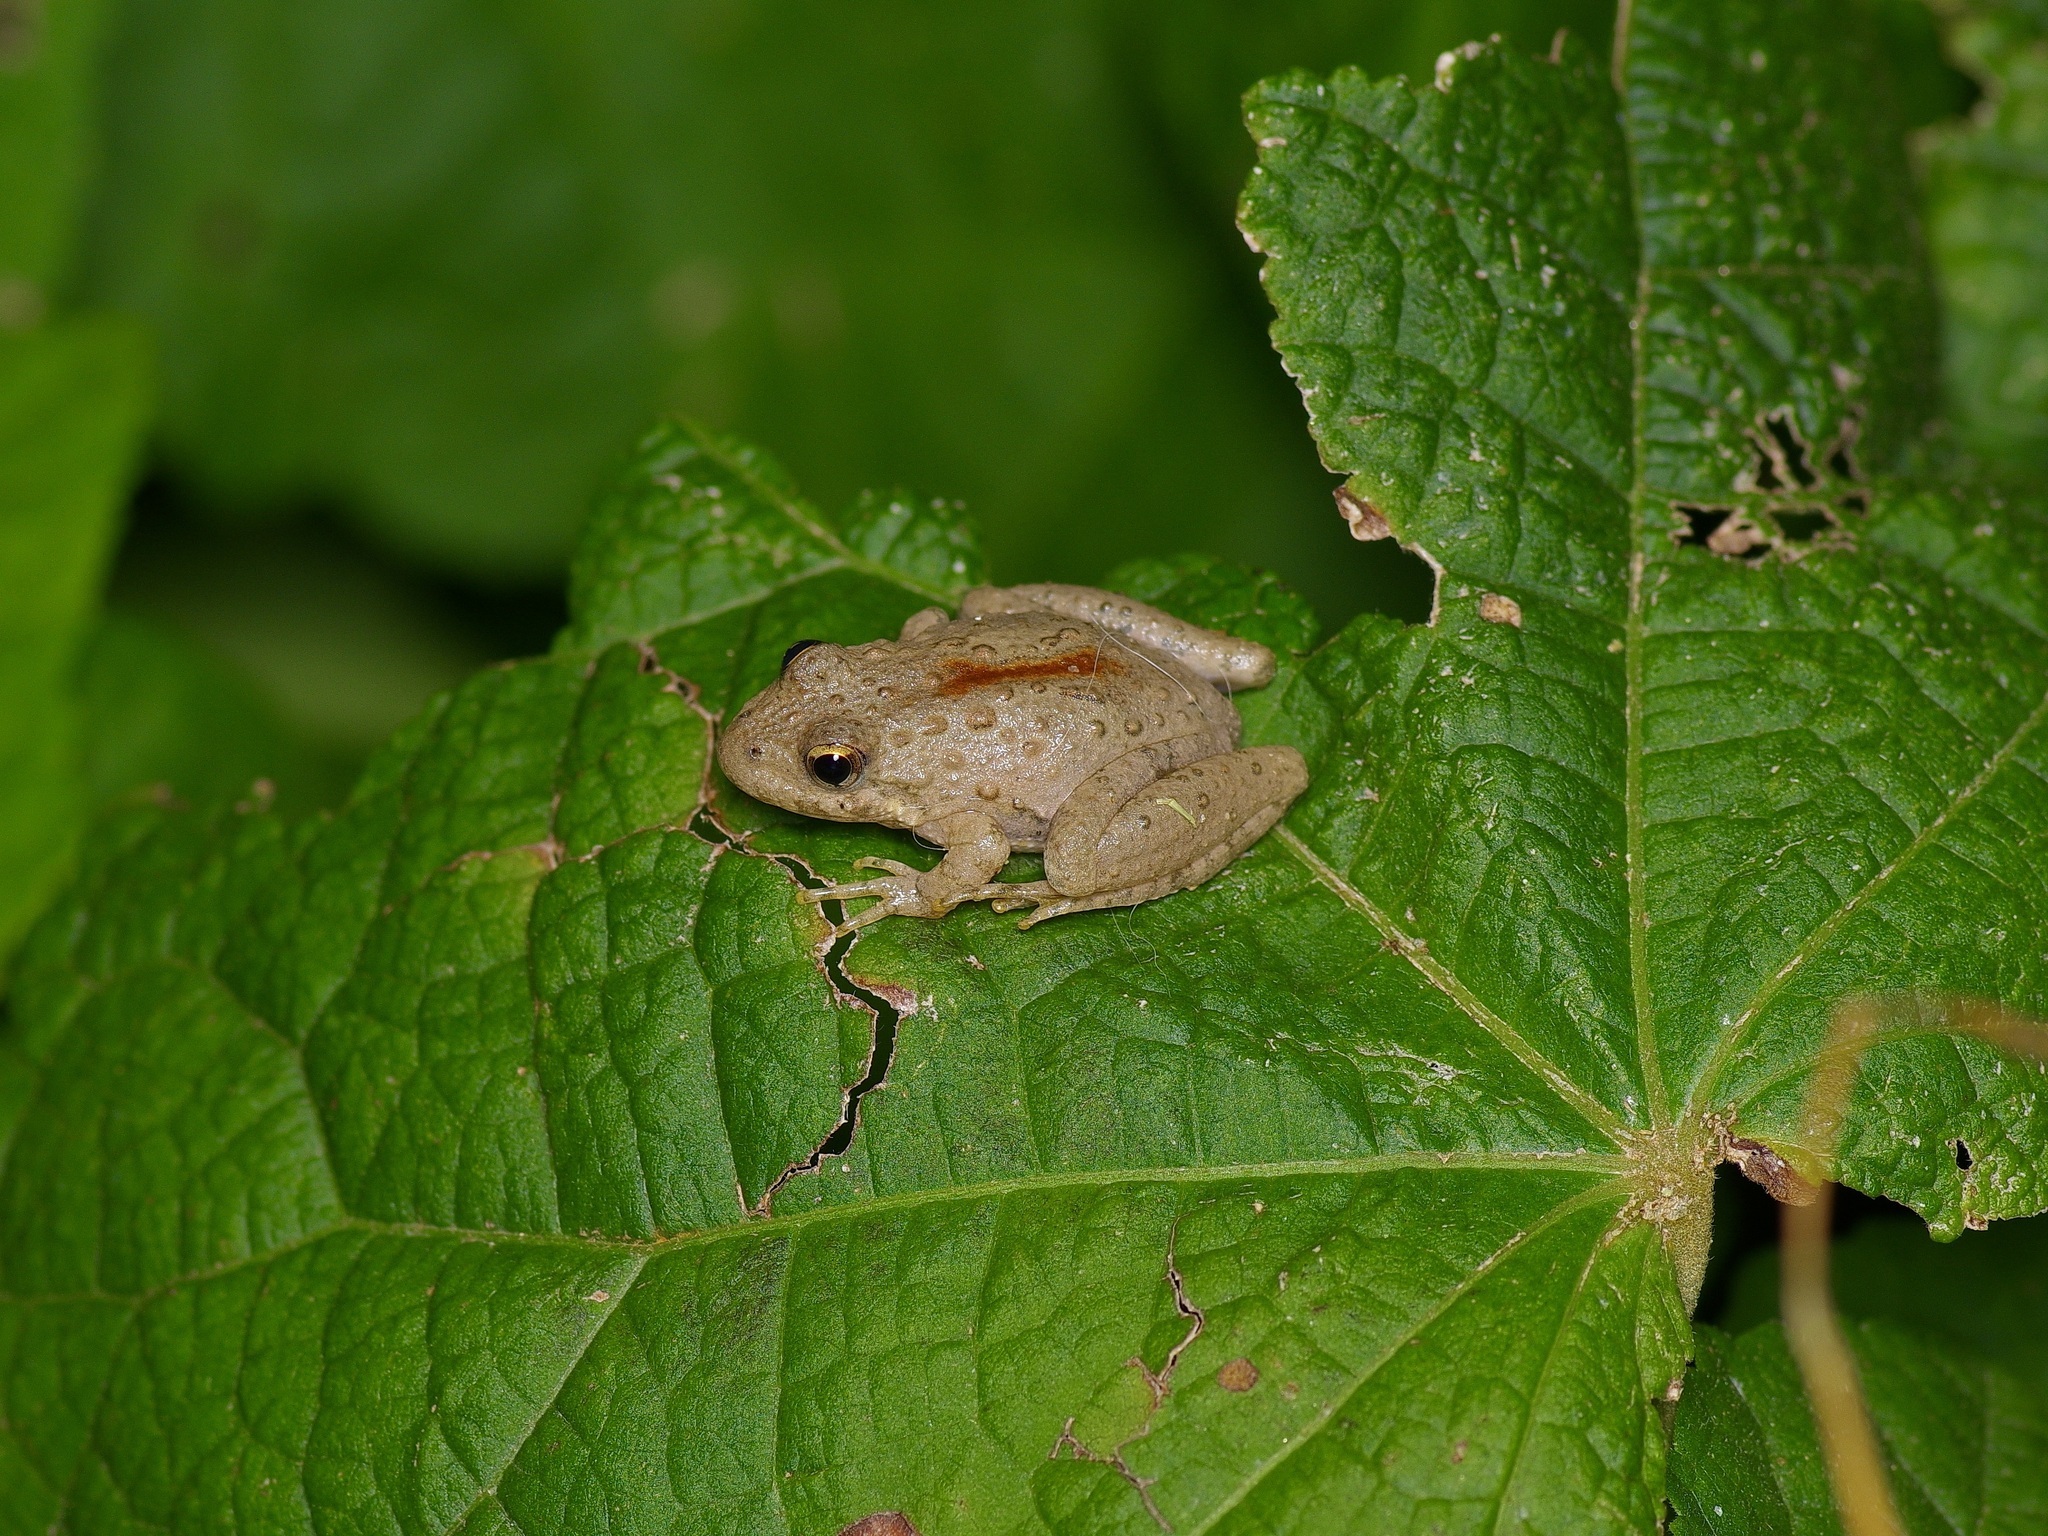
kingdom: Animalia
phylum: Chordata
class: Amphibia
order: Anura
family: Hylidae
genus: Acris
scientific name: Acris blanchardi
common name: Blanchard's cricket frog
